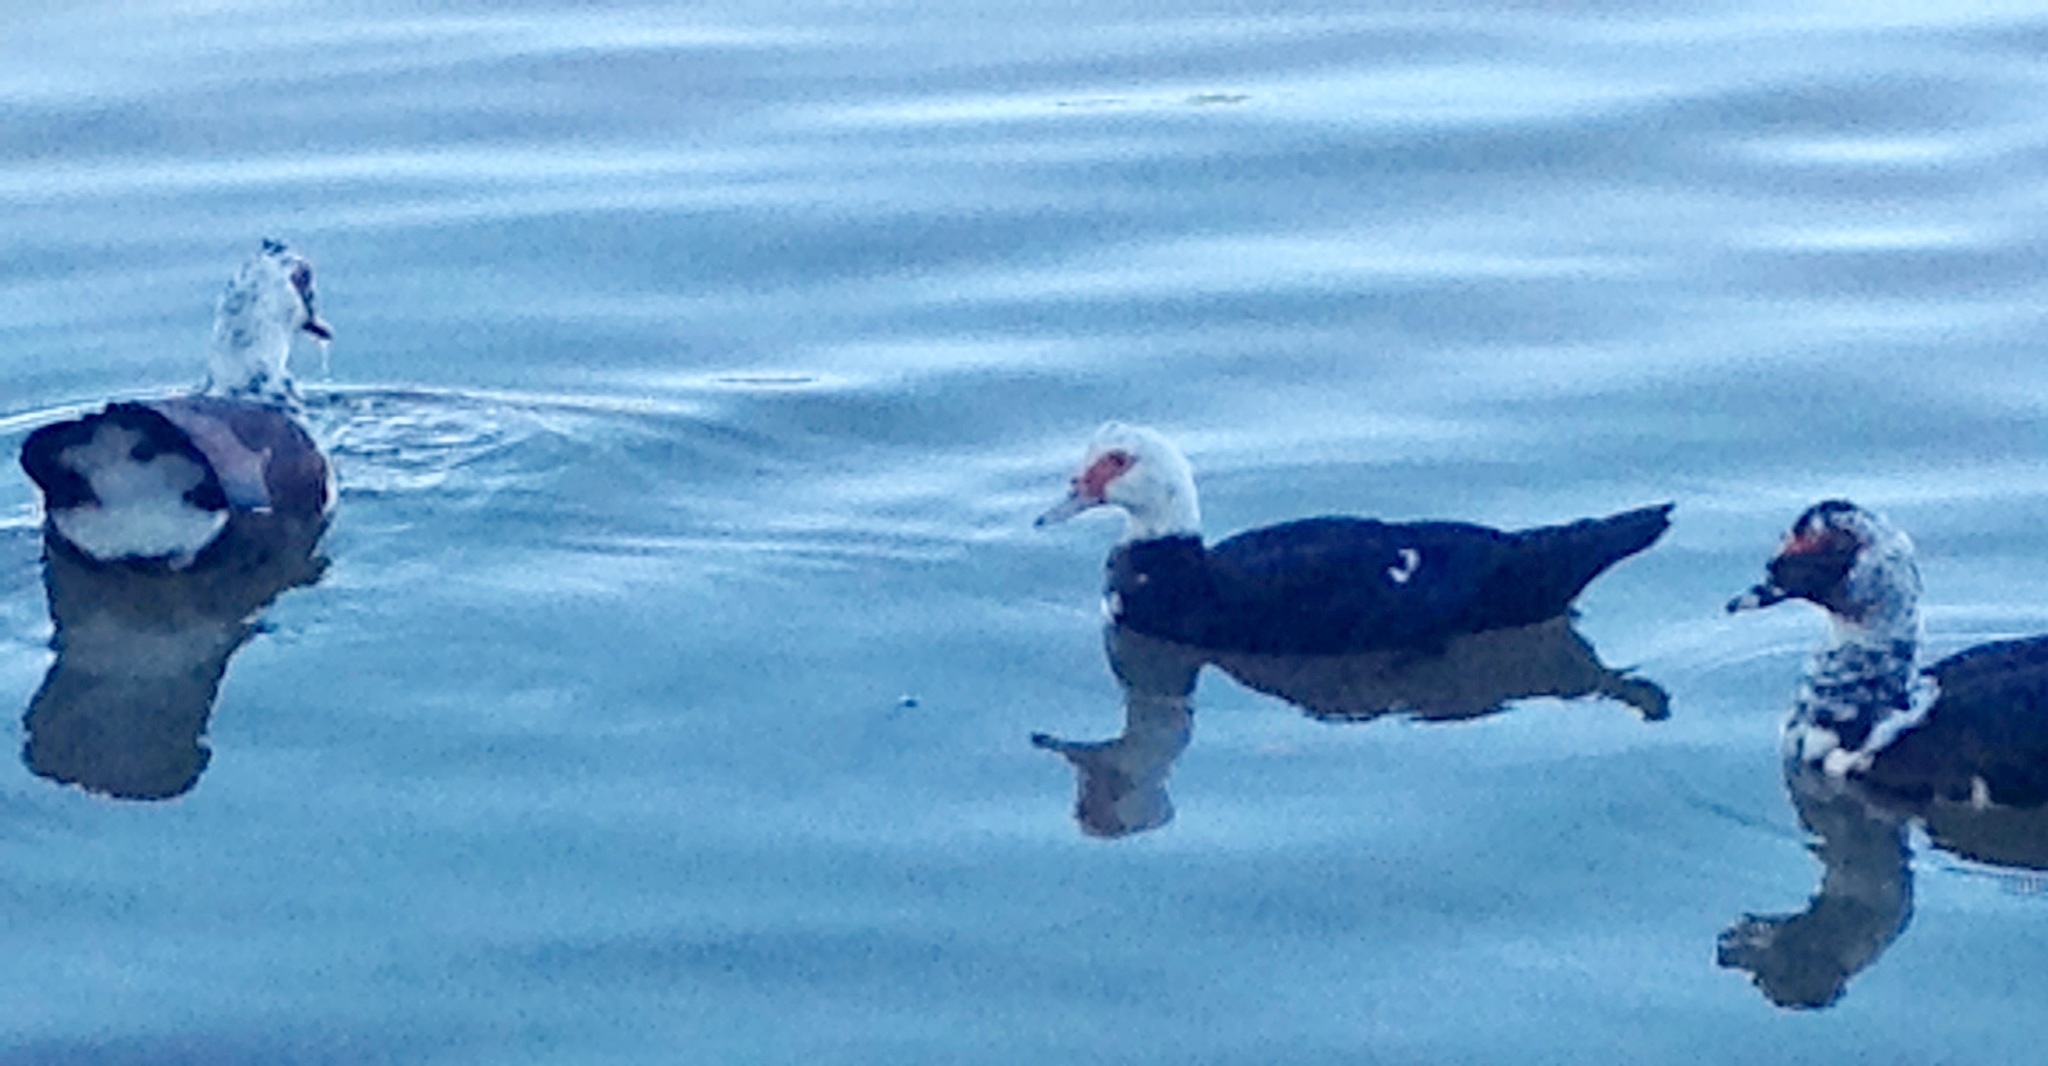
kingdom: Animalia
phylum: Chordata
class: Aves
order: Anseriformes
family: Anatidae
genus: Cairina
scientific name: Cairina moschata
